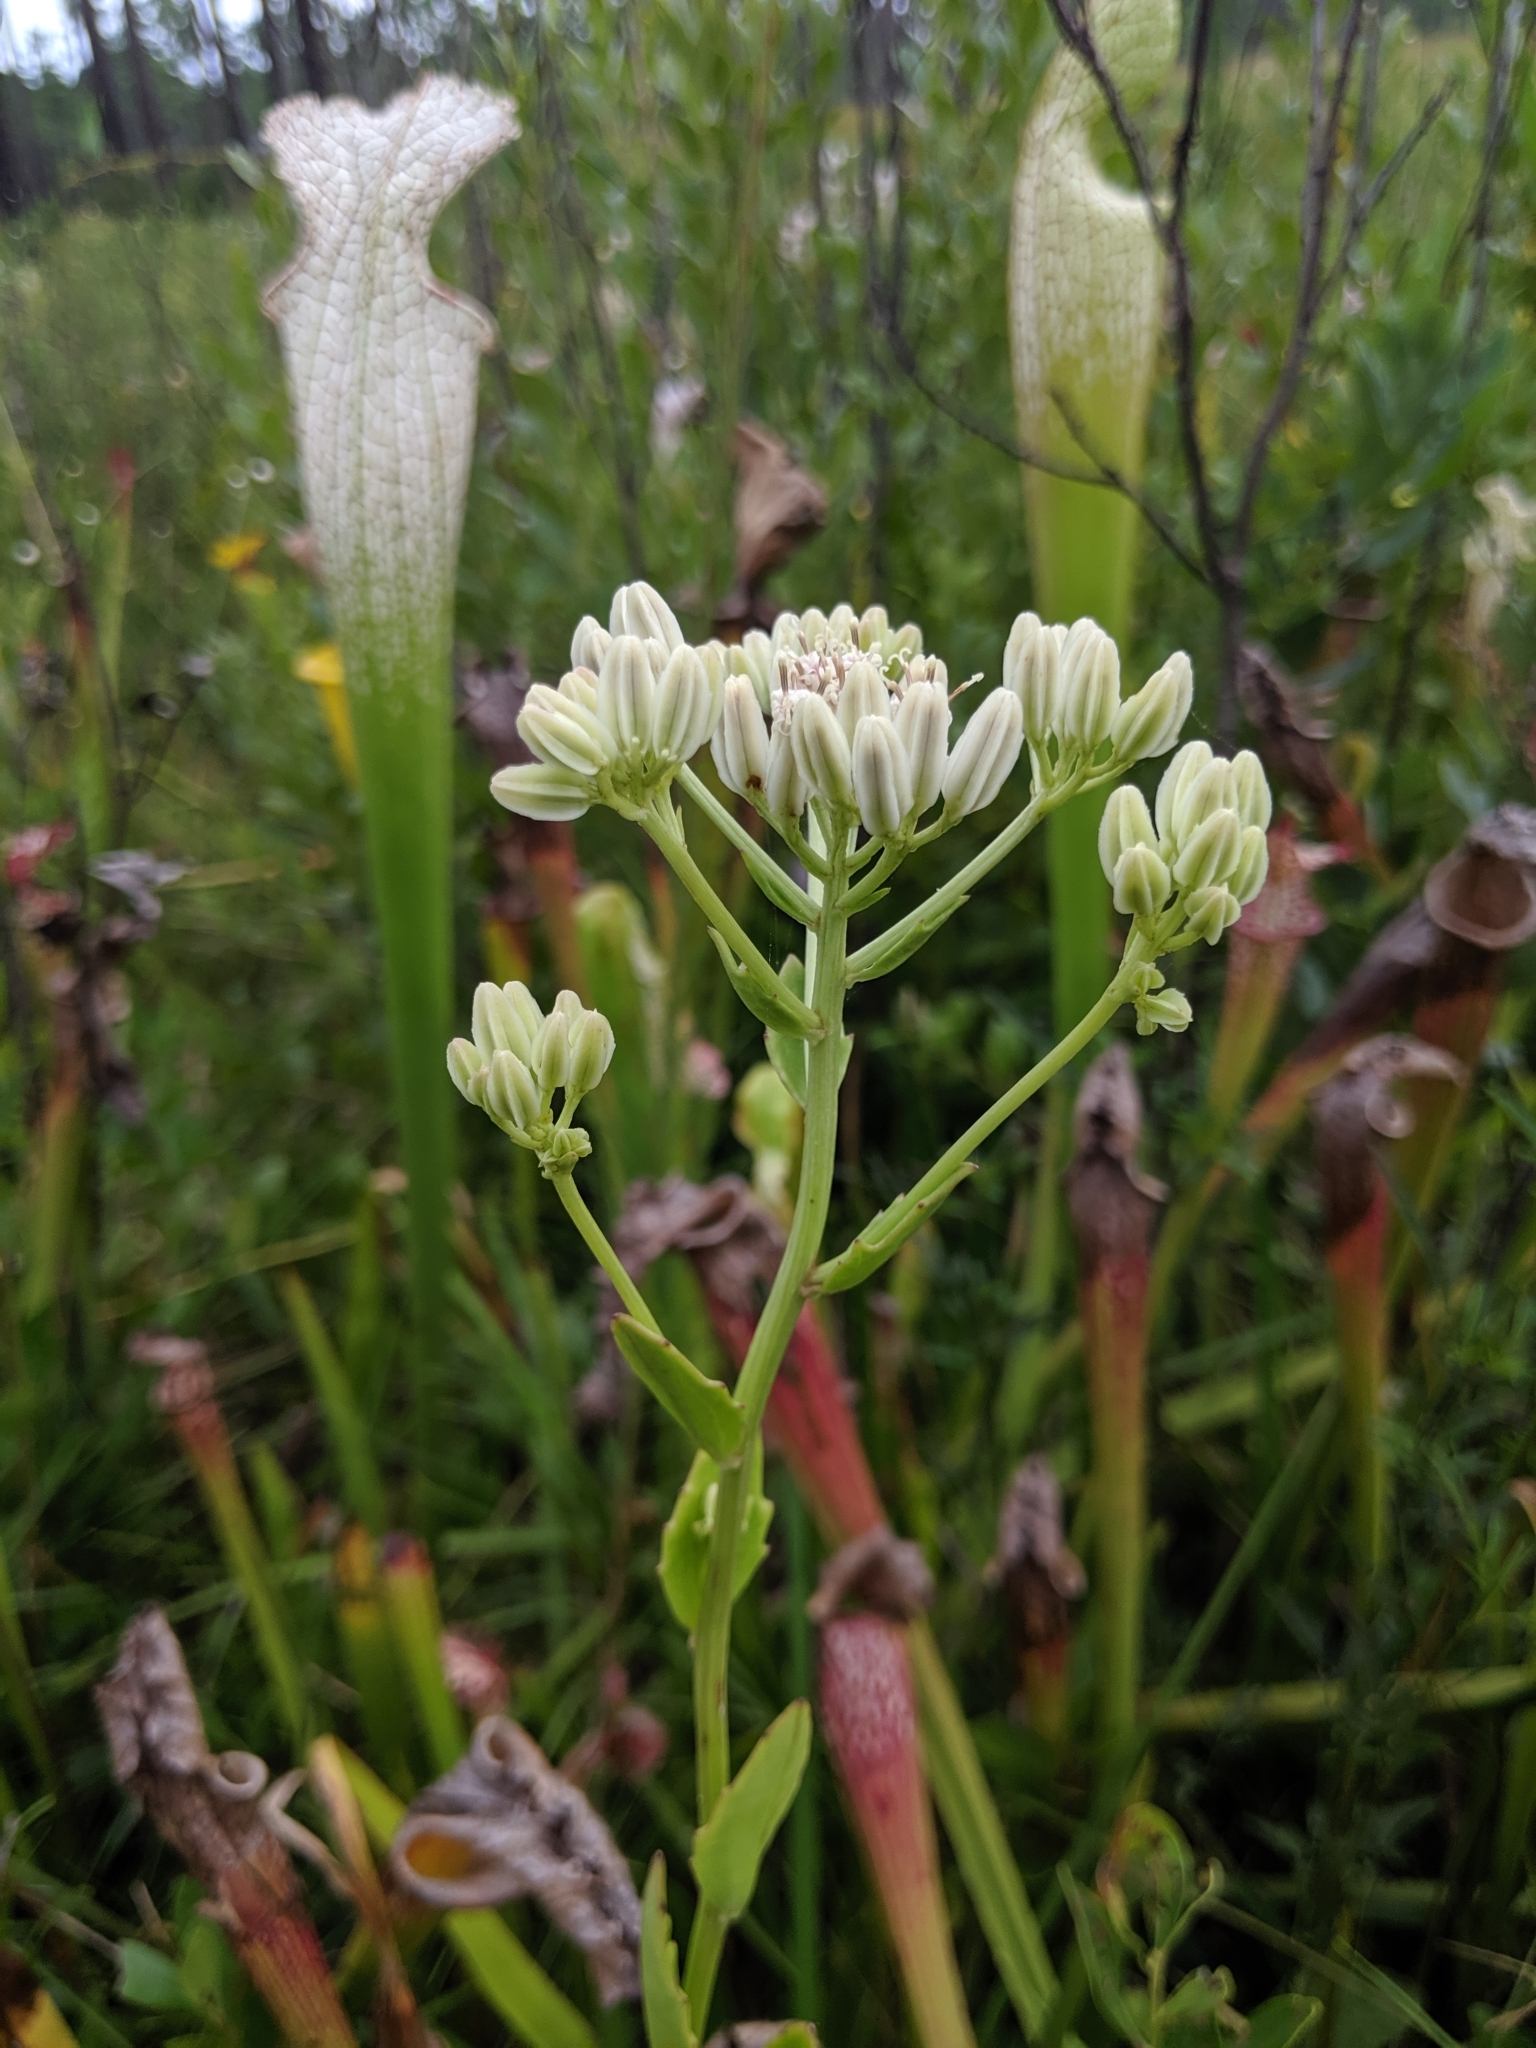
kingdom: Plantae
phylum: Tracheophyta
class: Magnoliopsida
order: Asterales
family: Asteraceae
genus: Arnoglossum
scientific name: Arnoglossum sulcatum
